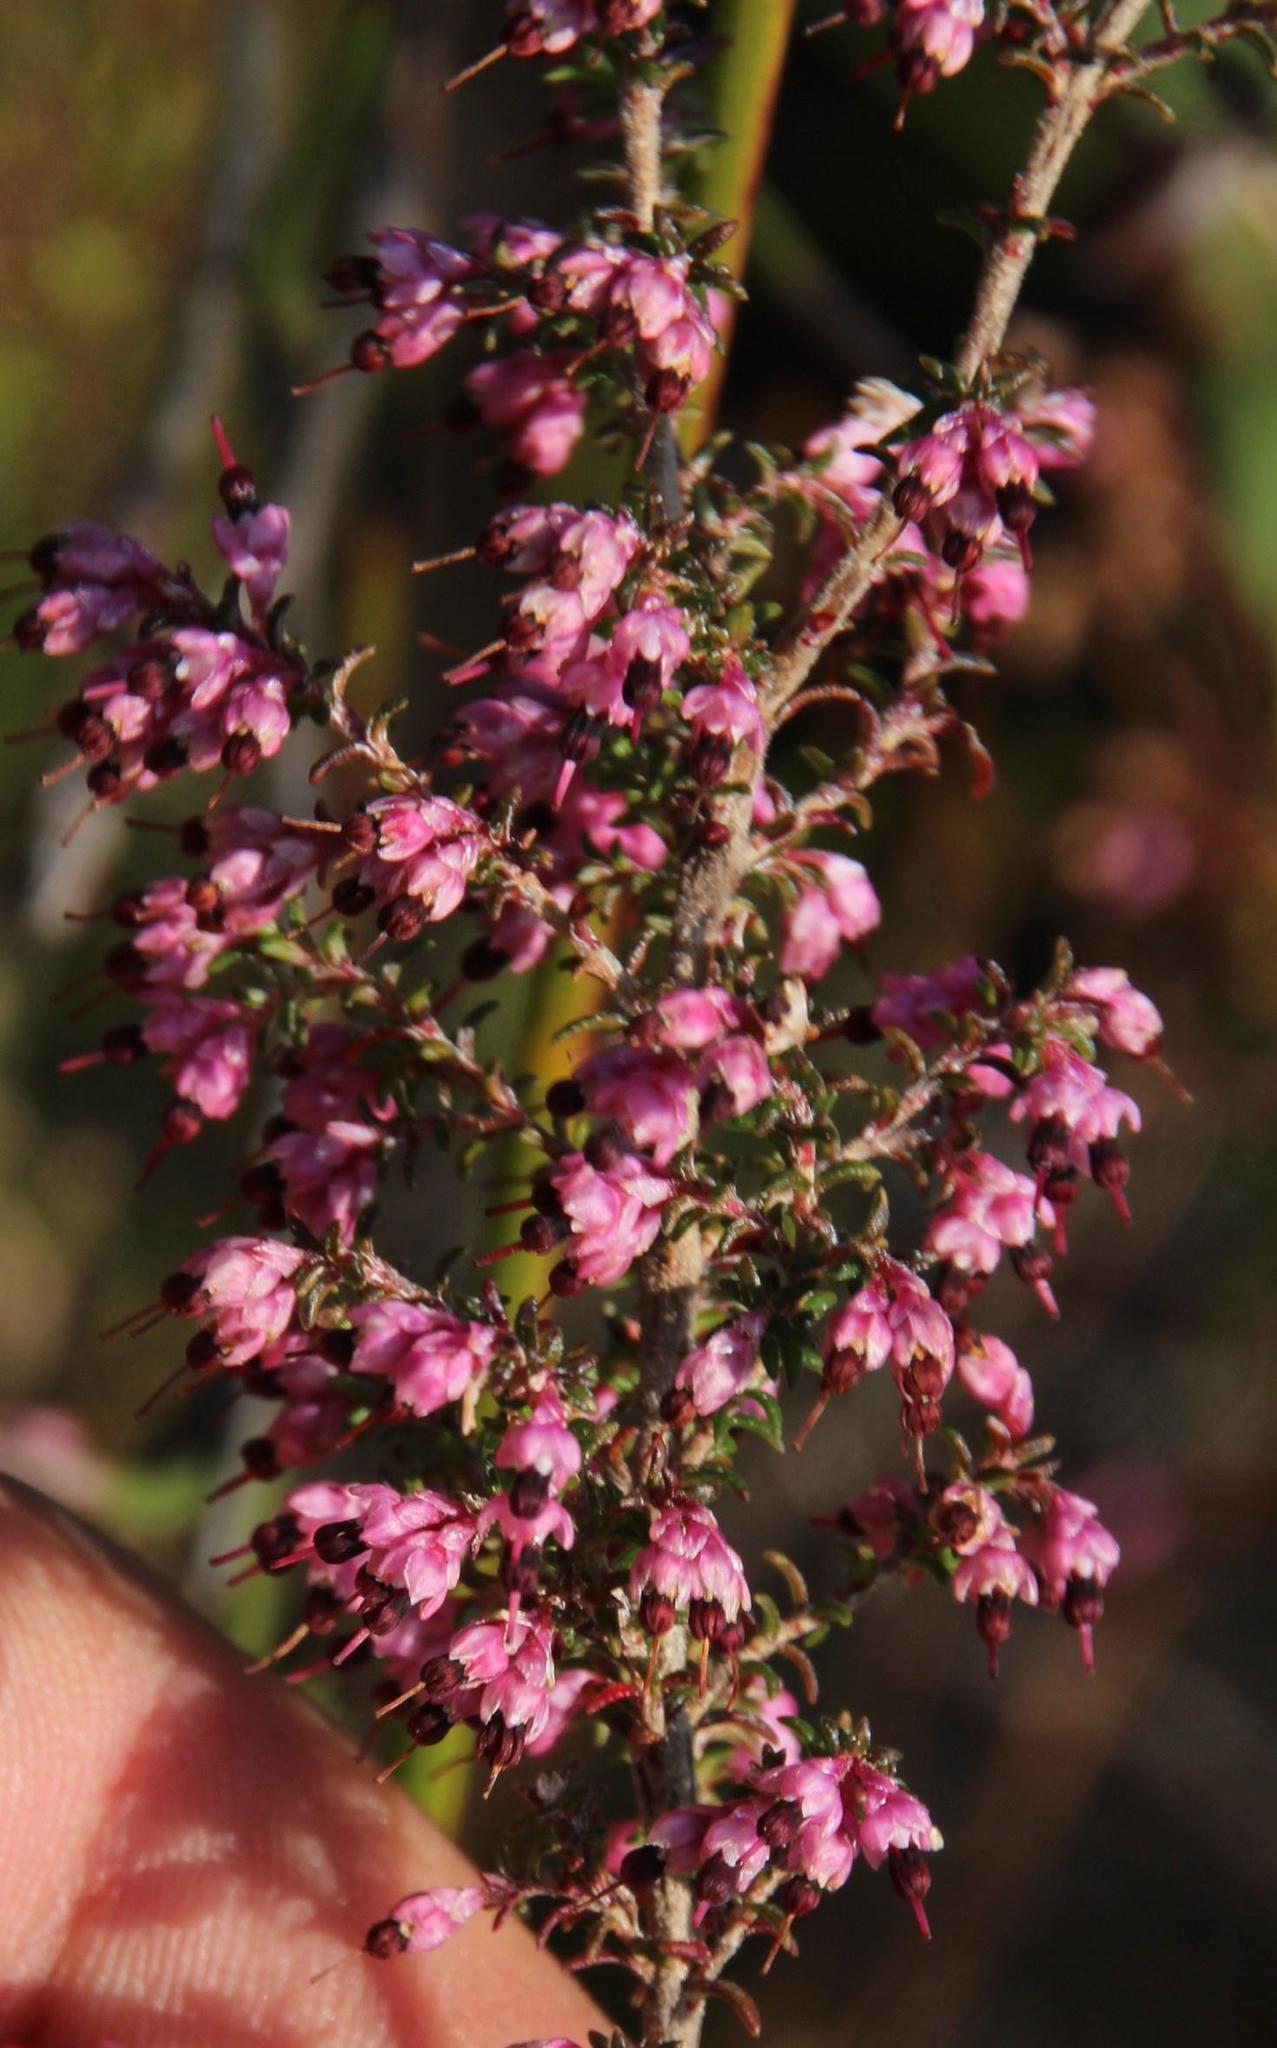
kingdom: Plantae
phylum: Tracheophyta
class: Magnoliopsida
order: Ericales
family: Ericaceae
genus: Erica
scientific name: Erica placentiflora
